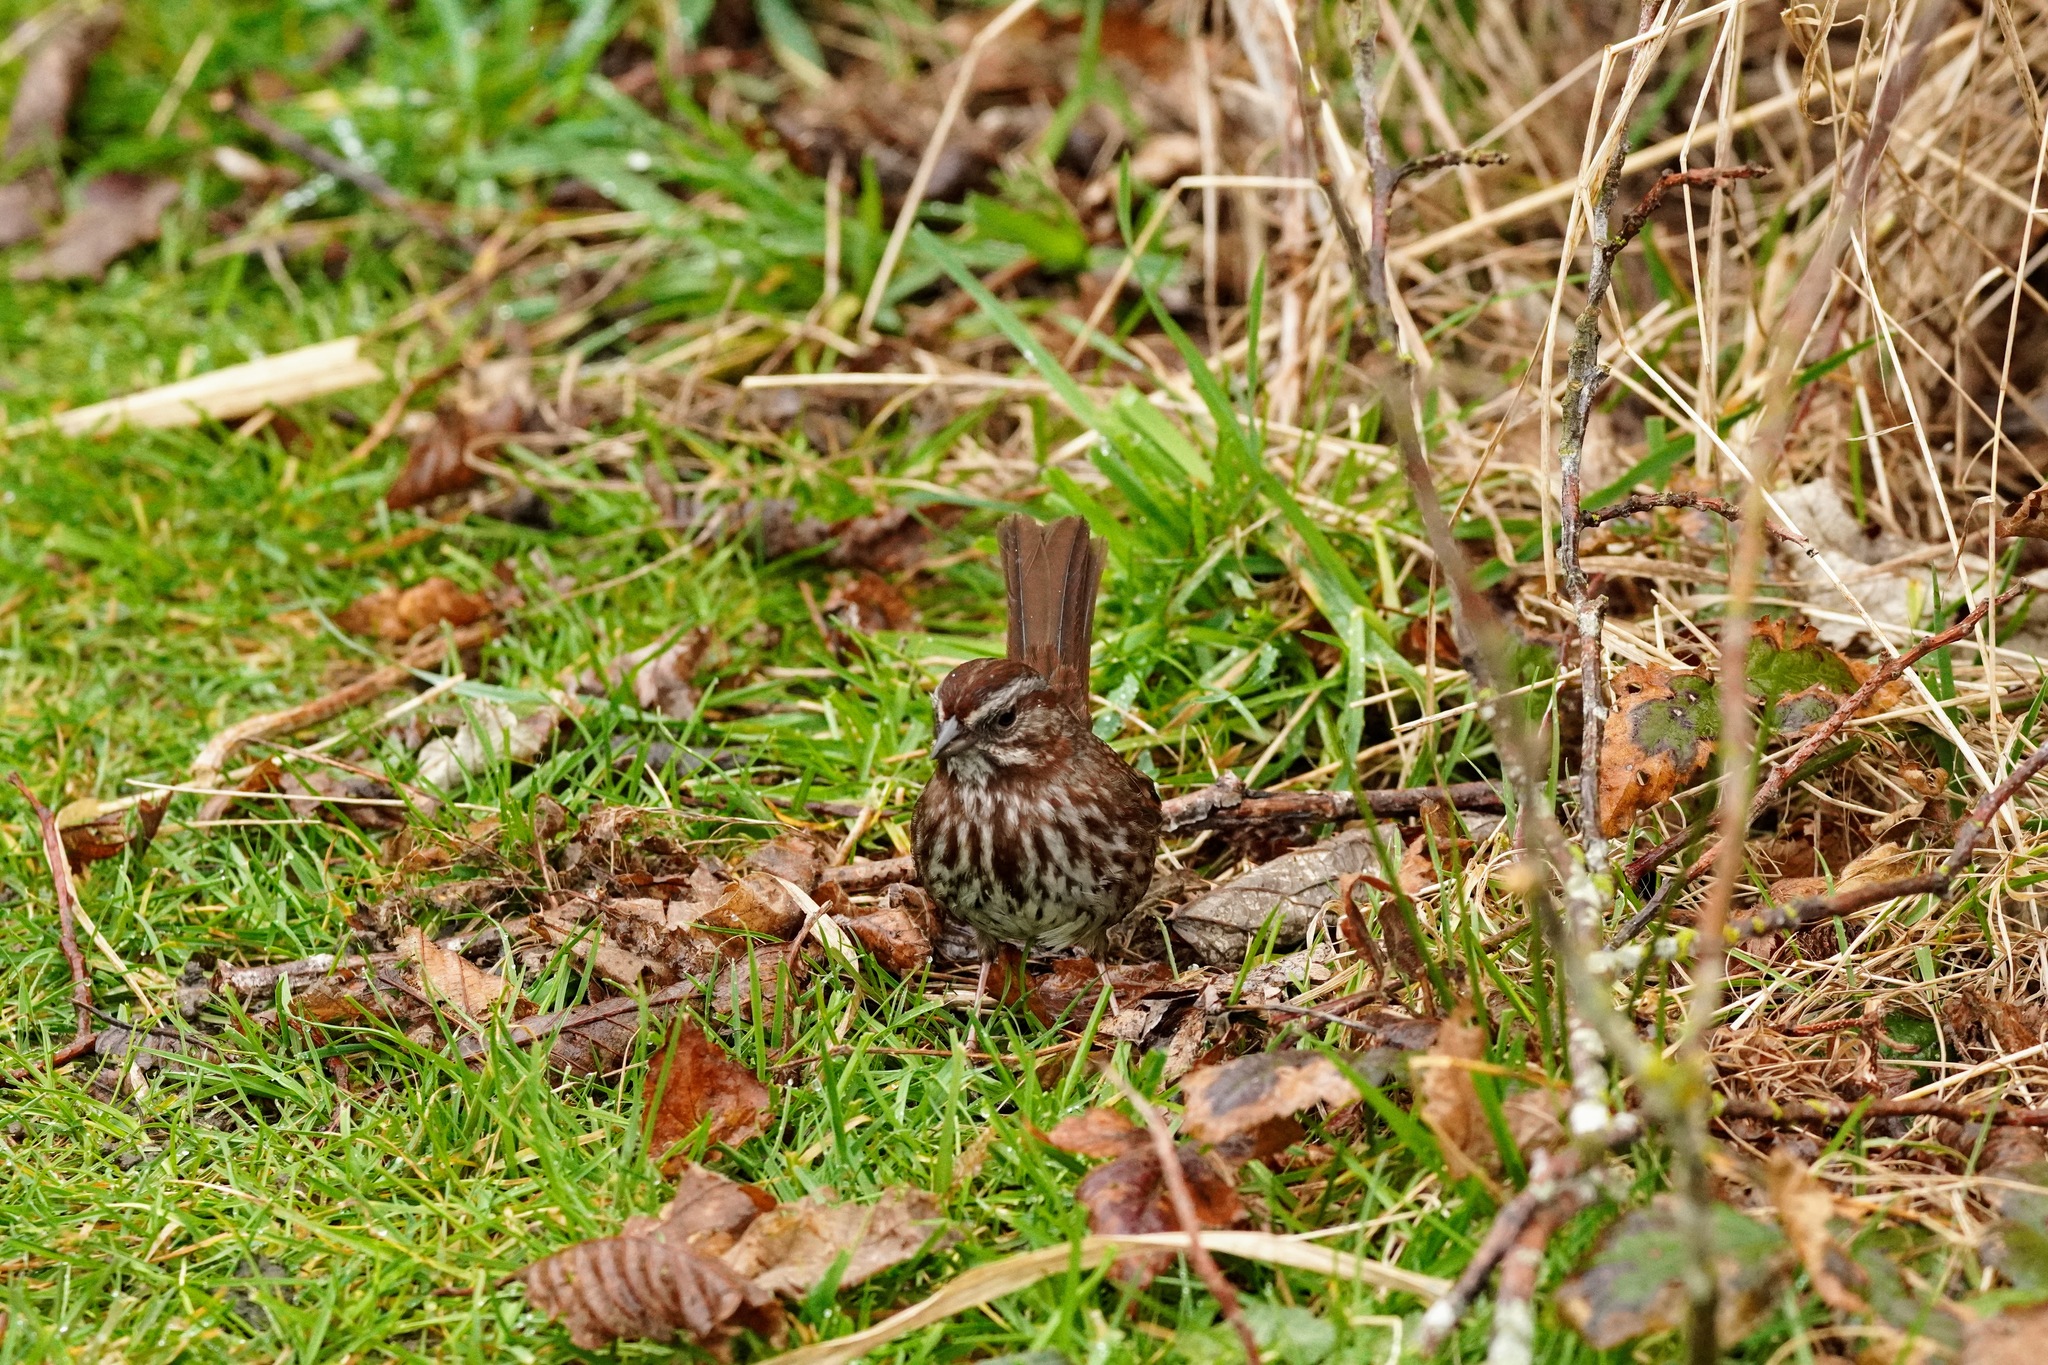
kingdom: Animalia
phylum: Chordata
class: Aves
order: Passeriformes
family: Passerellidae
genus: Melospiza
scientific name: Melospiza melodia
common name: Song sparrow
